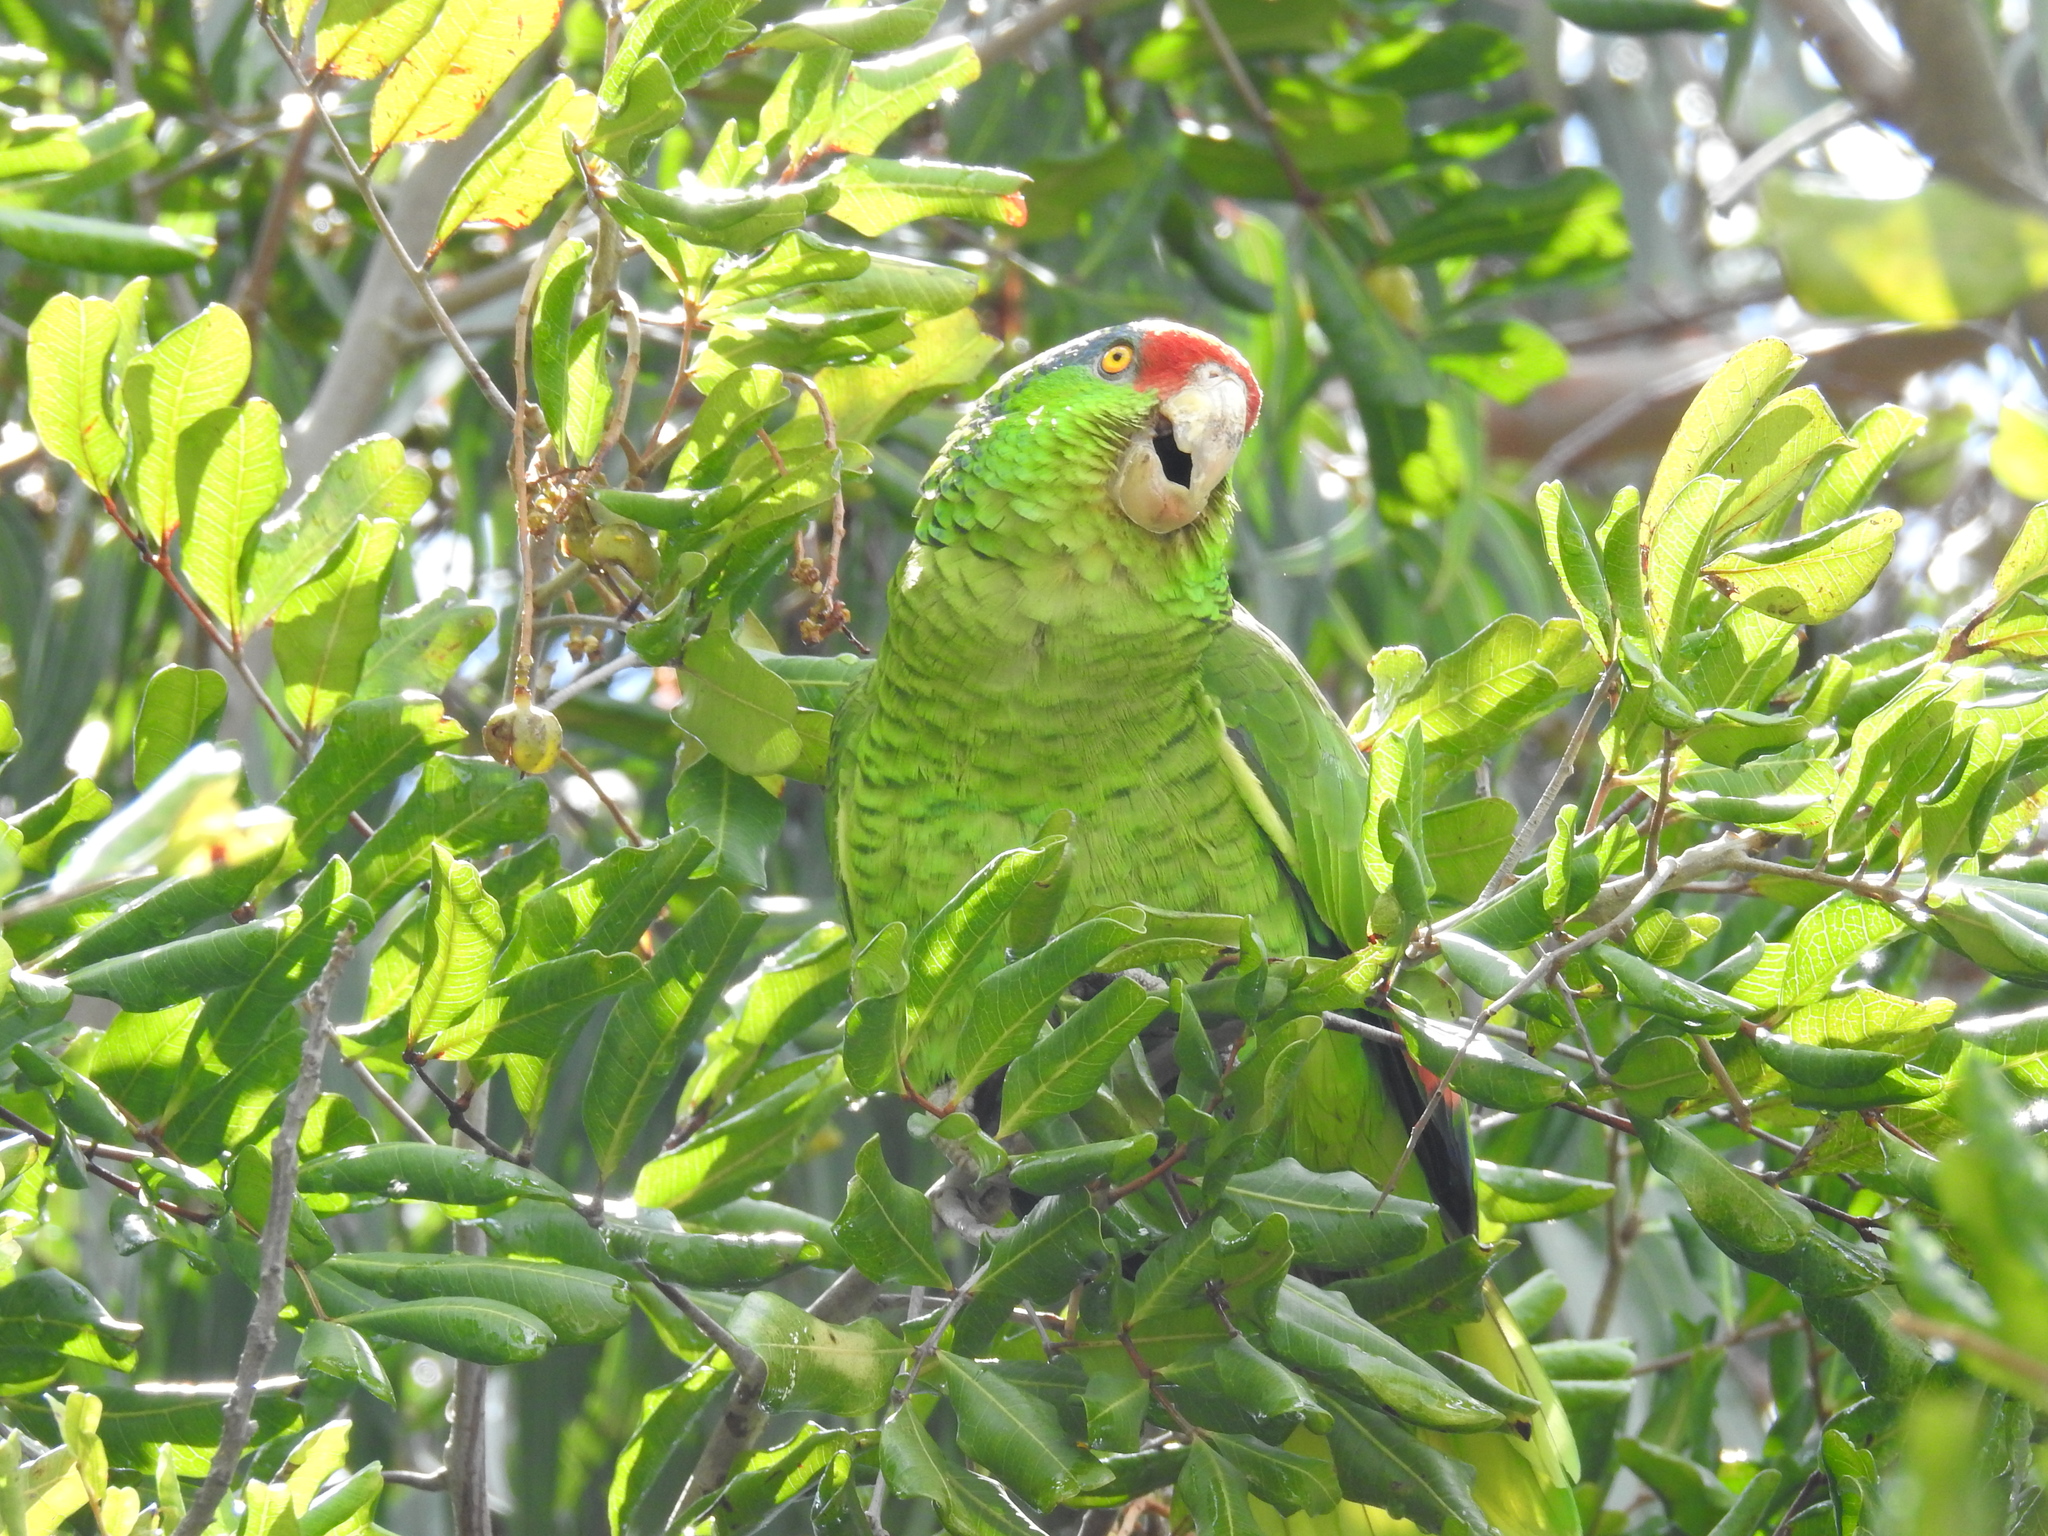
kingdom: Animalia
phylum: Chordata
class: Aves
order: Psittaciformes
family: Psittacidae
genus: Amazona
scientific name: Amazona viridigenalis
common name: Red-crowned amazon
